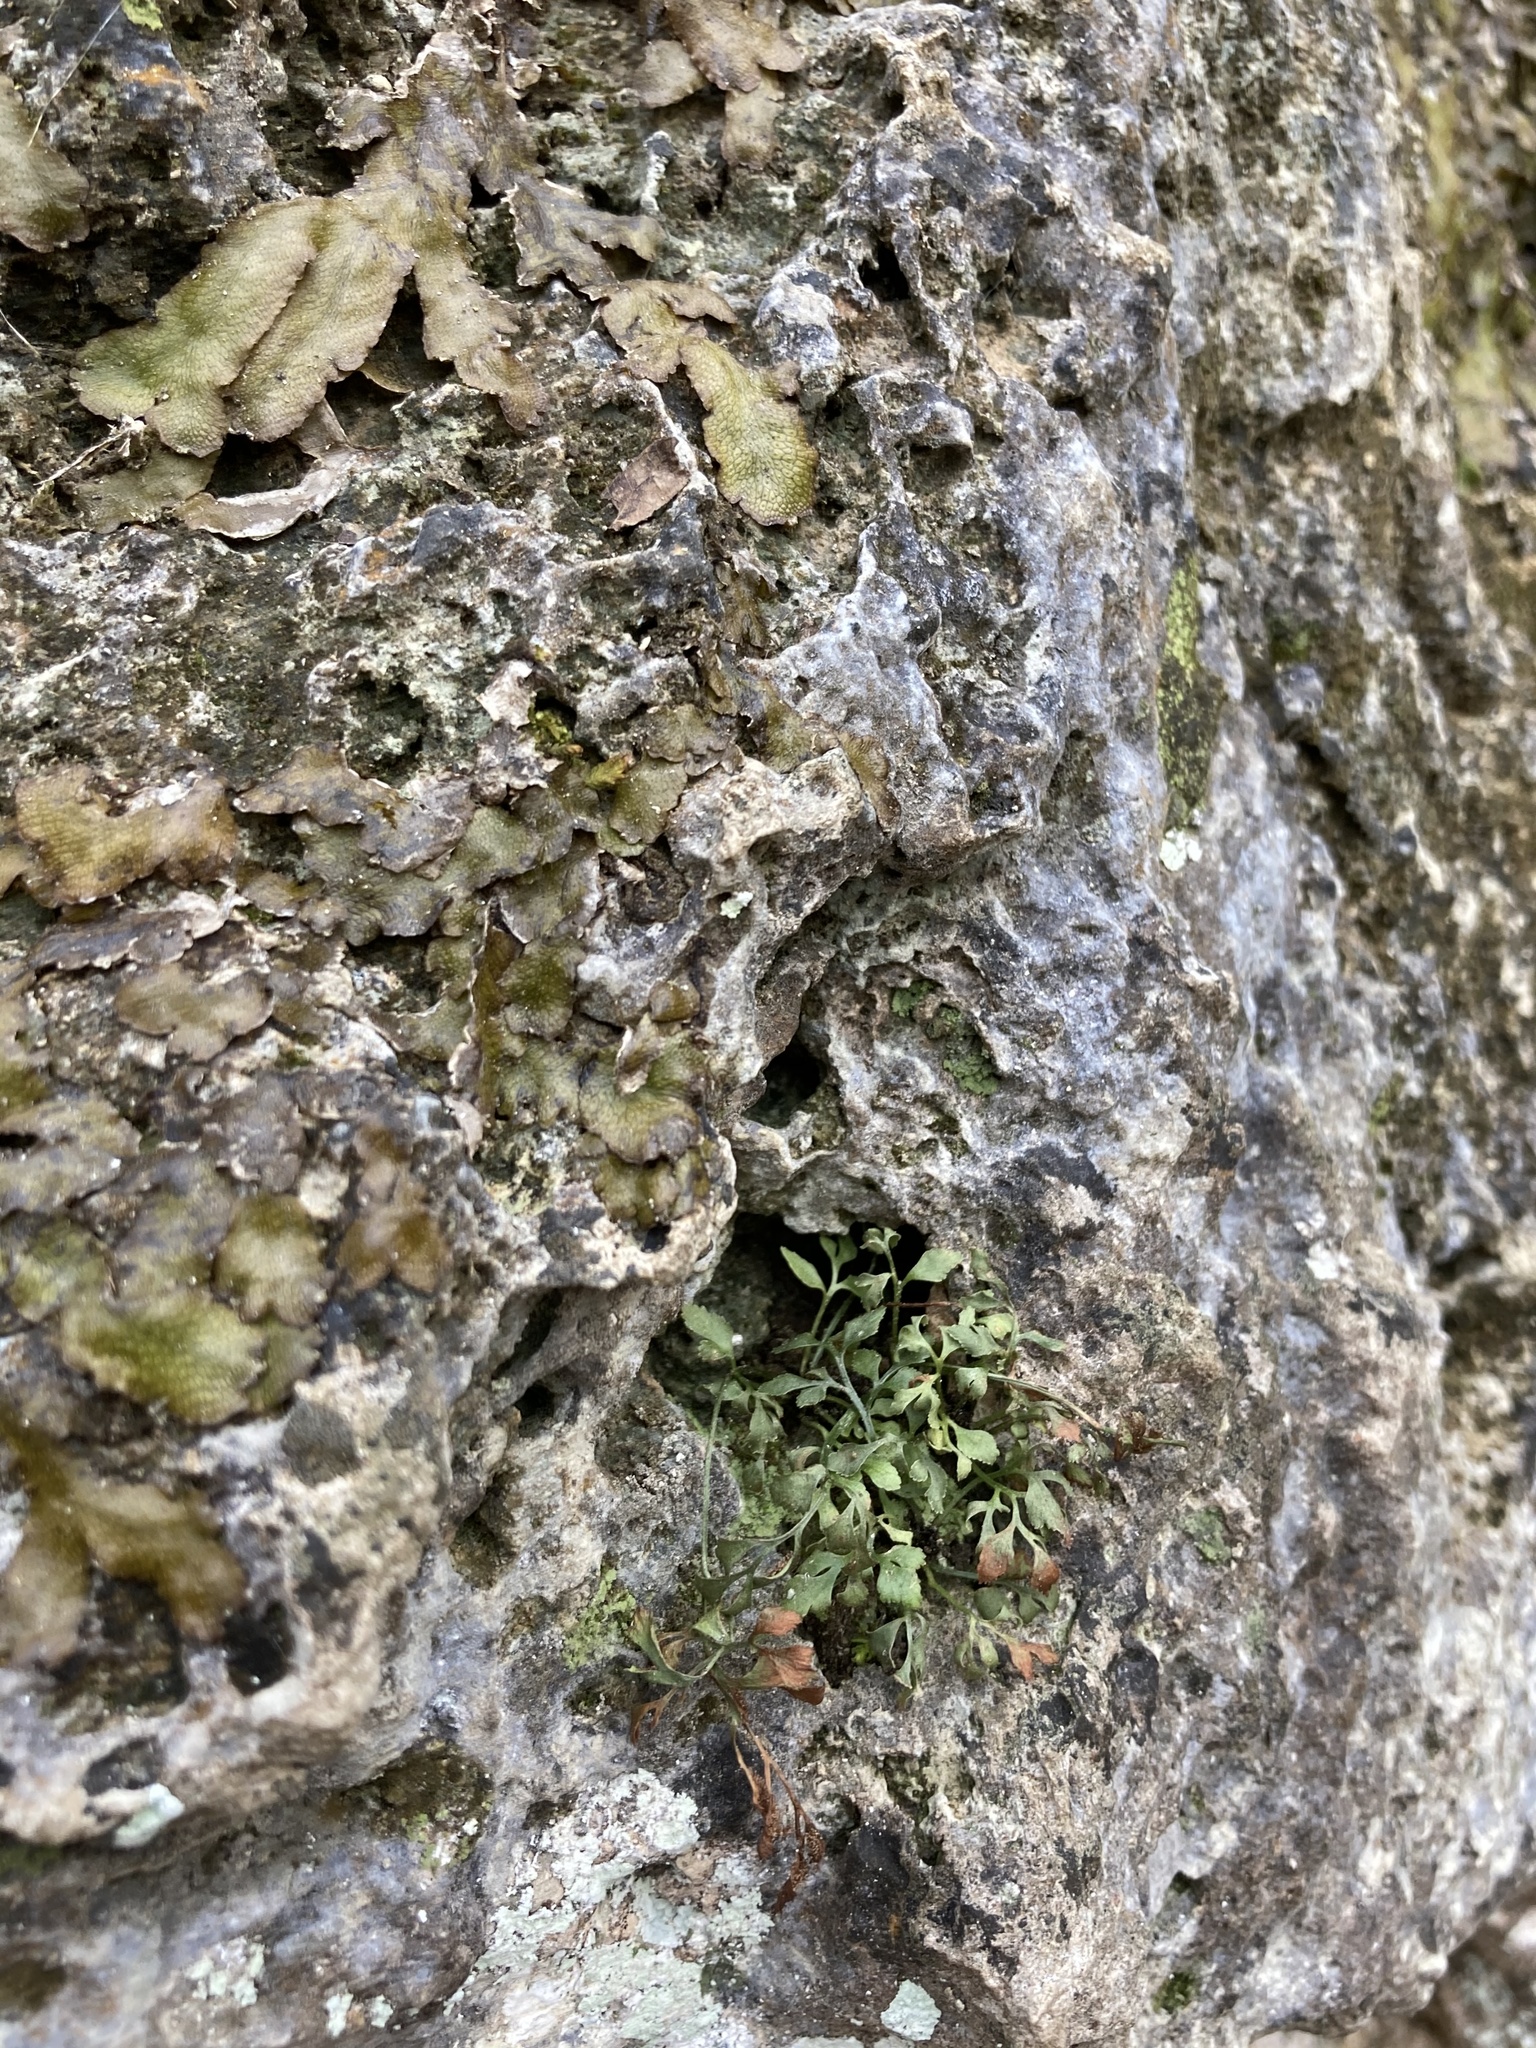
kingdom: Plantae
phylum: Tracheophyta
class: Polypodiopsida
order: Polypodiales
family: Aspleniaceae
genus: Asplenium
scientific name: Asplenium ruta-muraria
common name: Wall-rue
